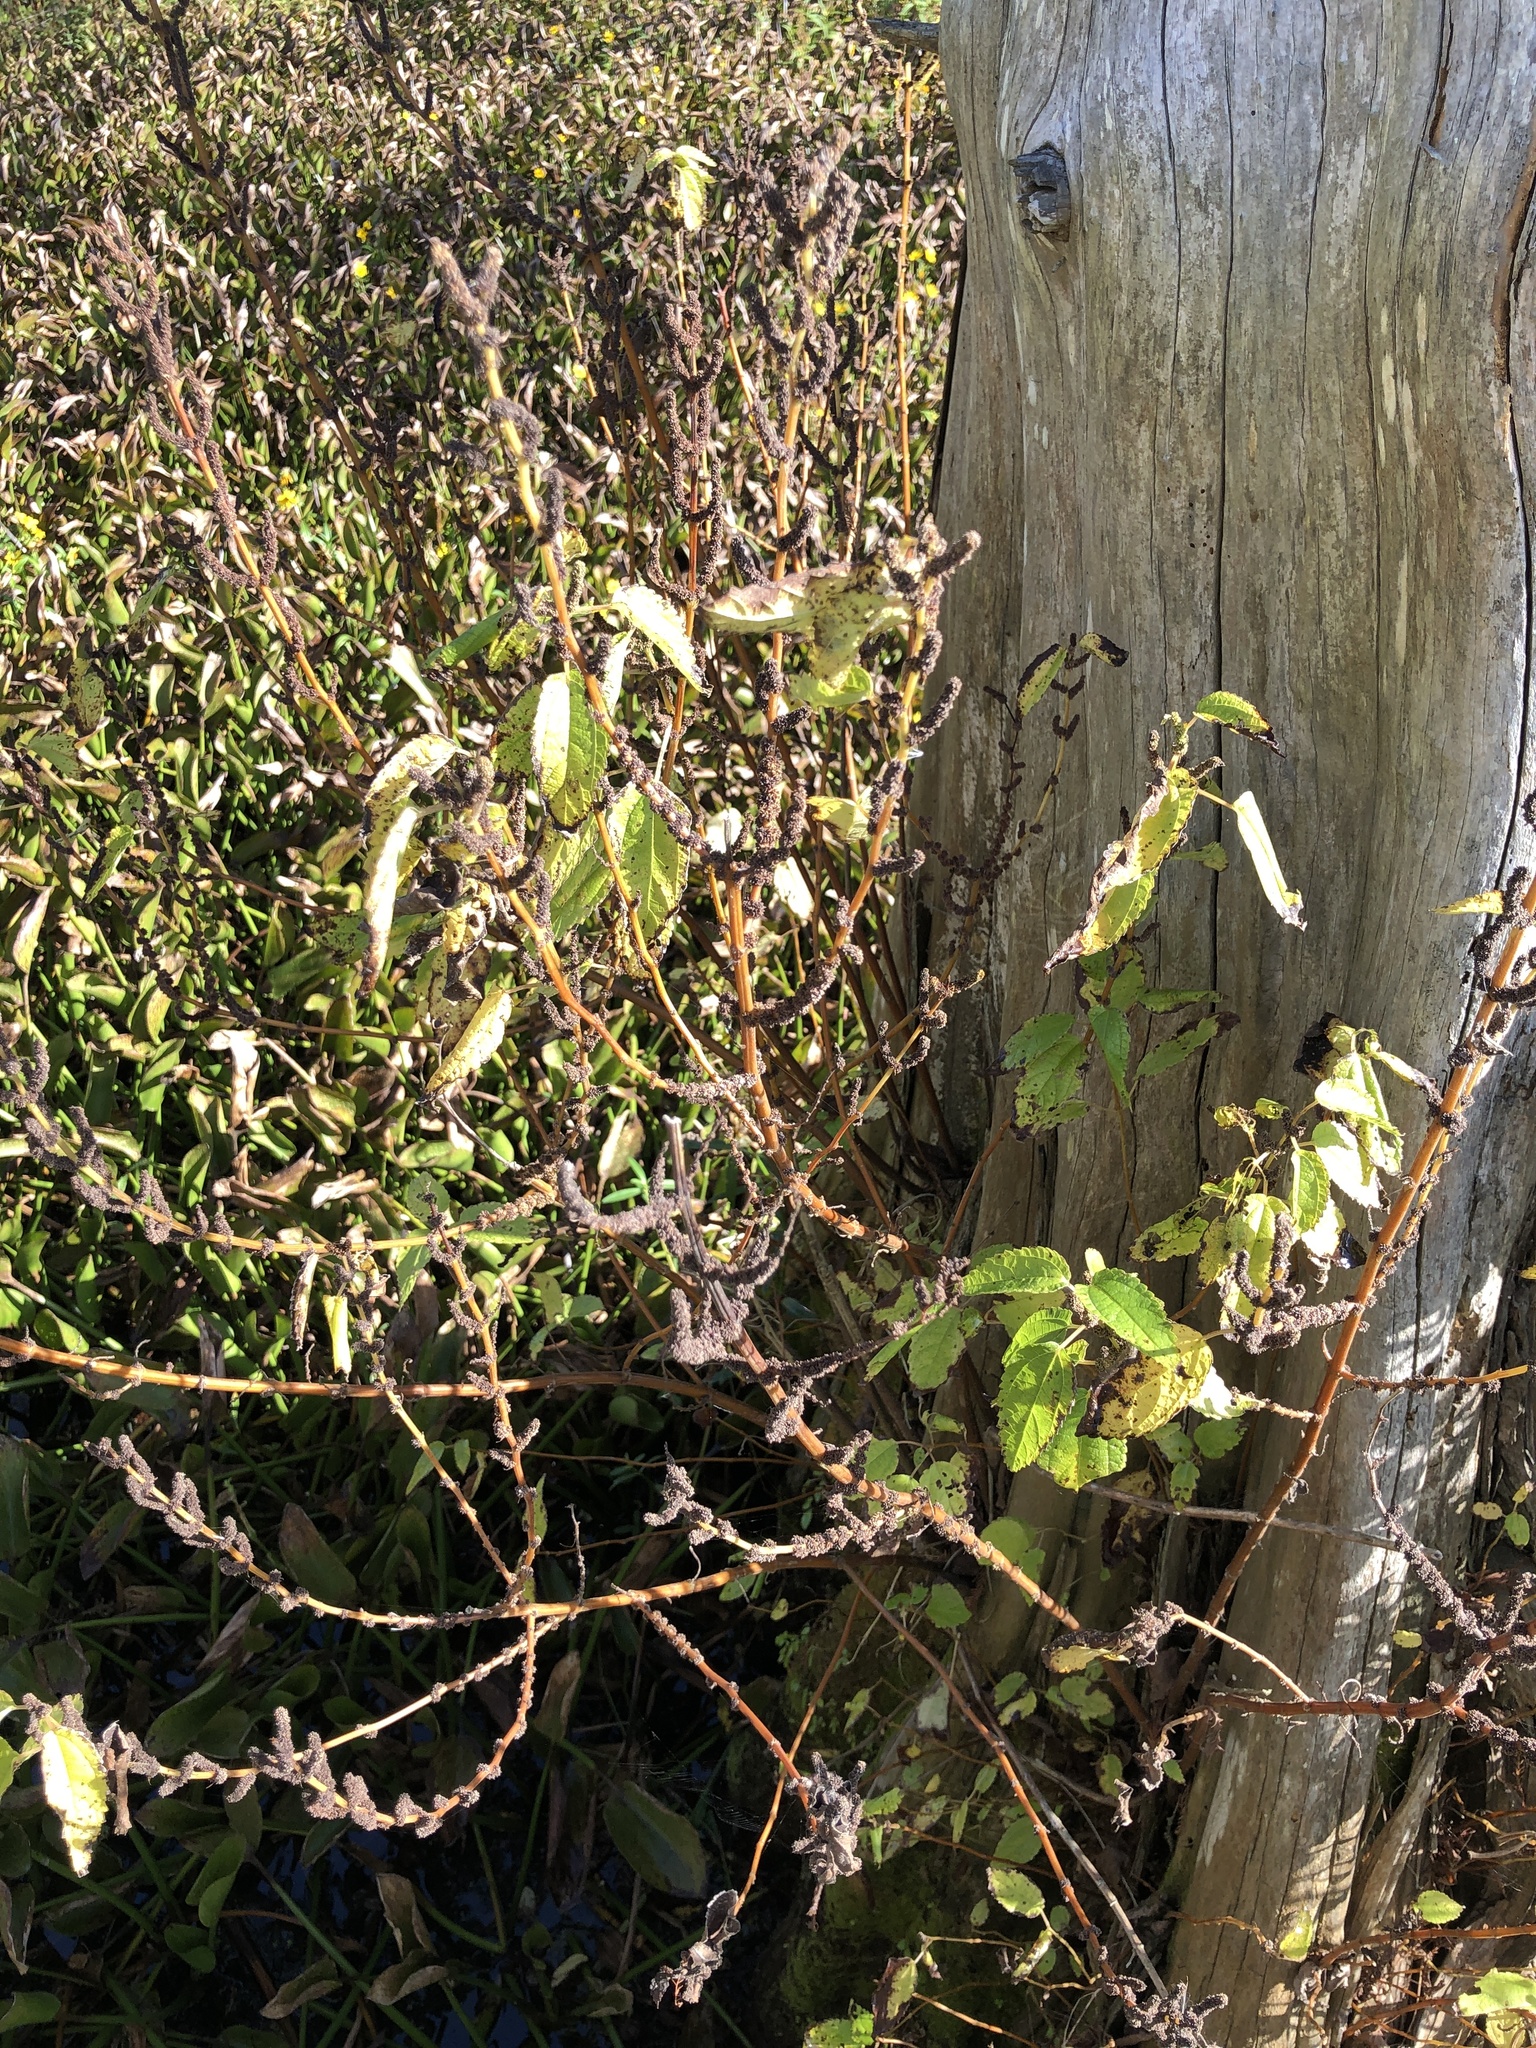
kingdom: Plantae
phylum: Tracheophyta
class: Magnoliopsida
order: Rosales
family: Urticaceae
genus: Boehmeria
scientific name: Boehmeria cylindrica
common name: Bog-hemp
